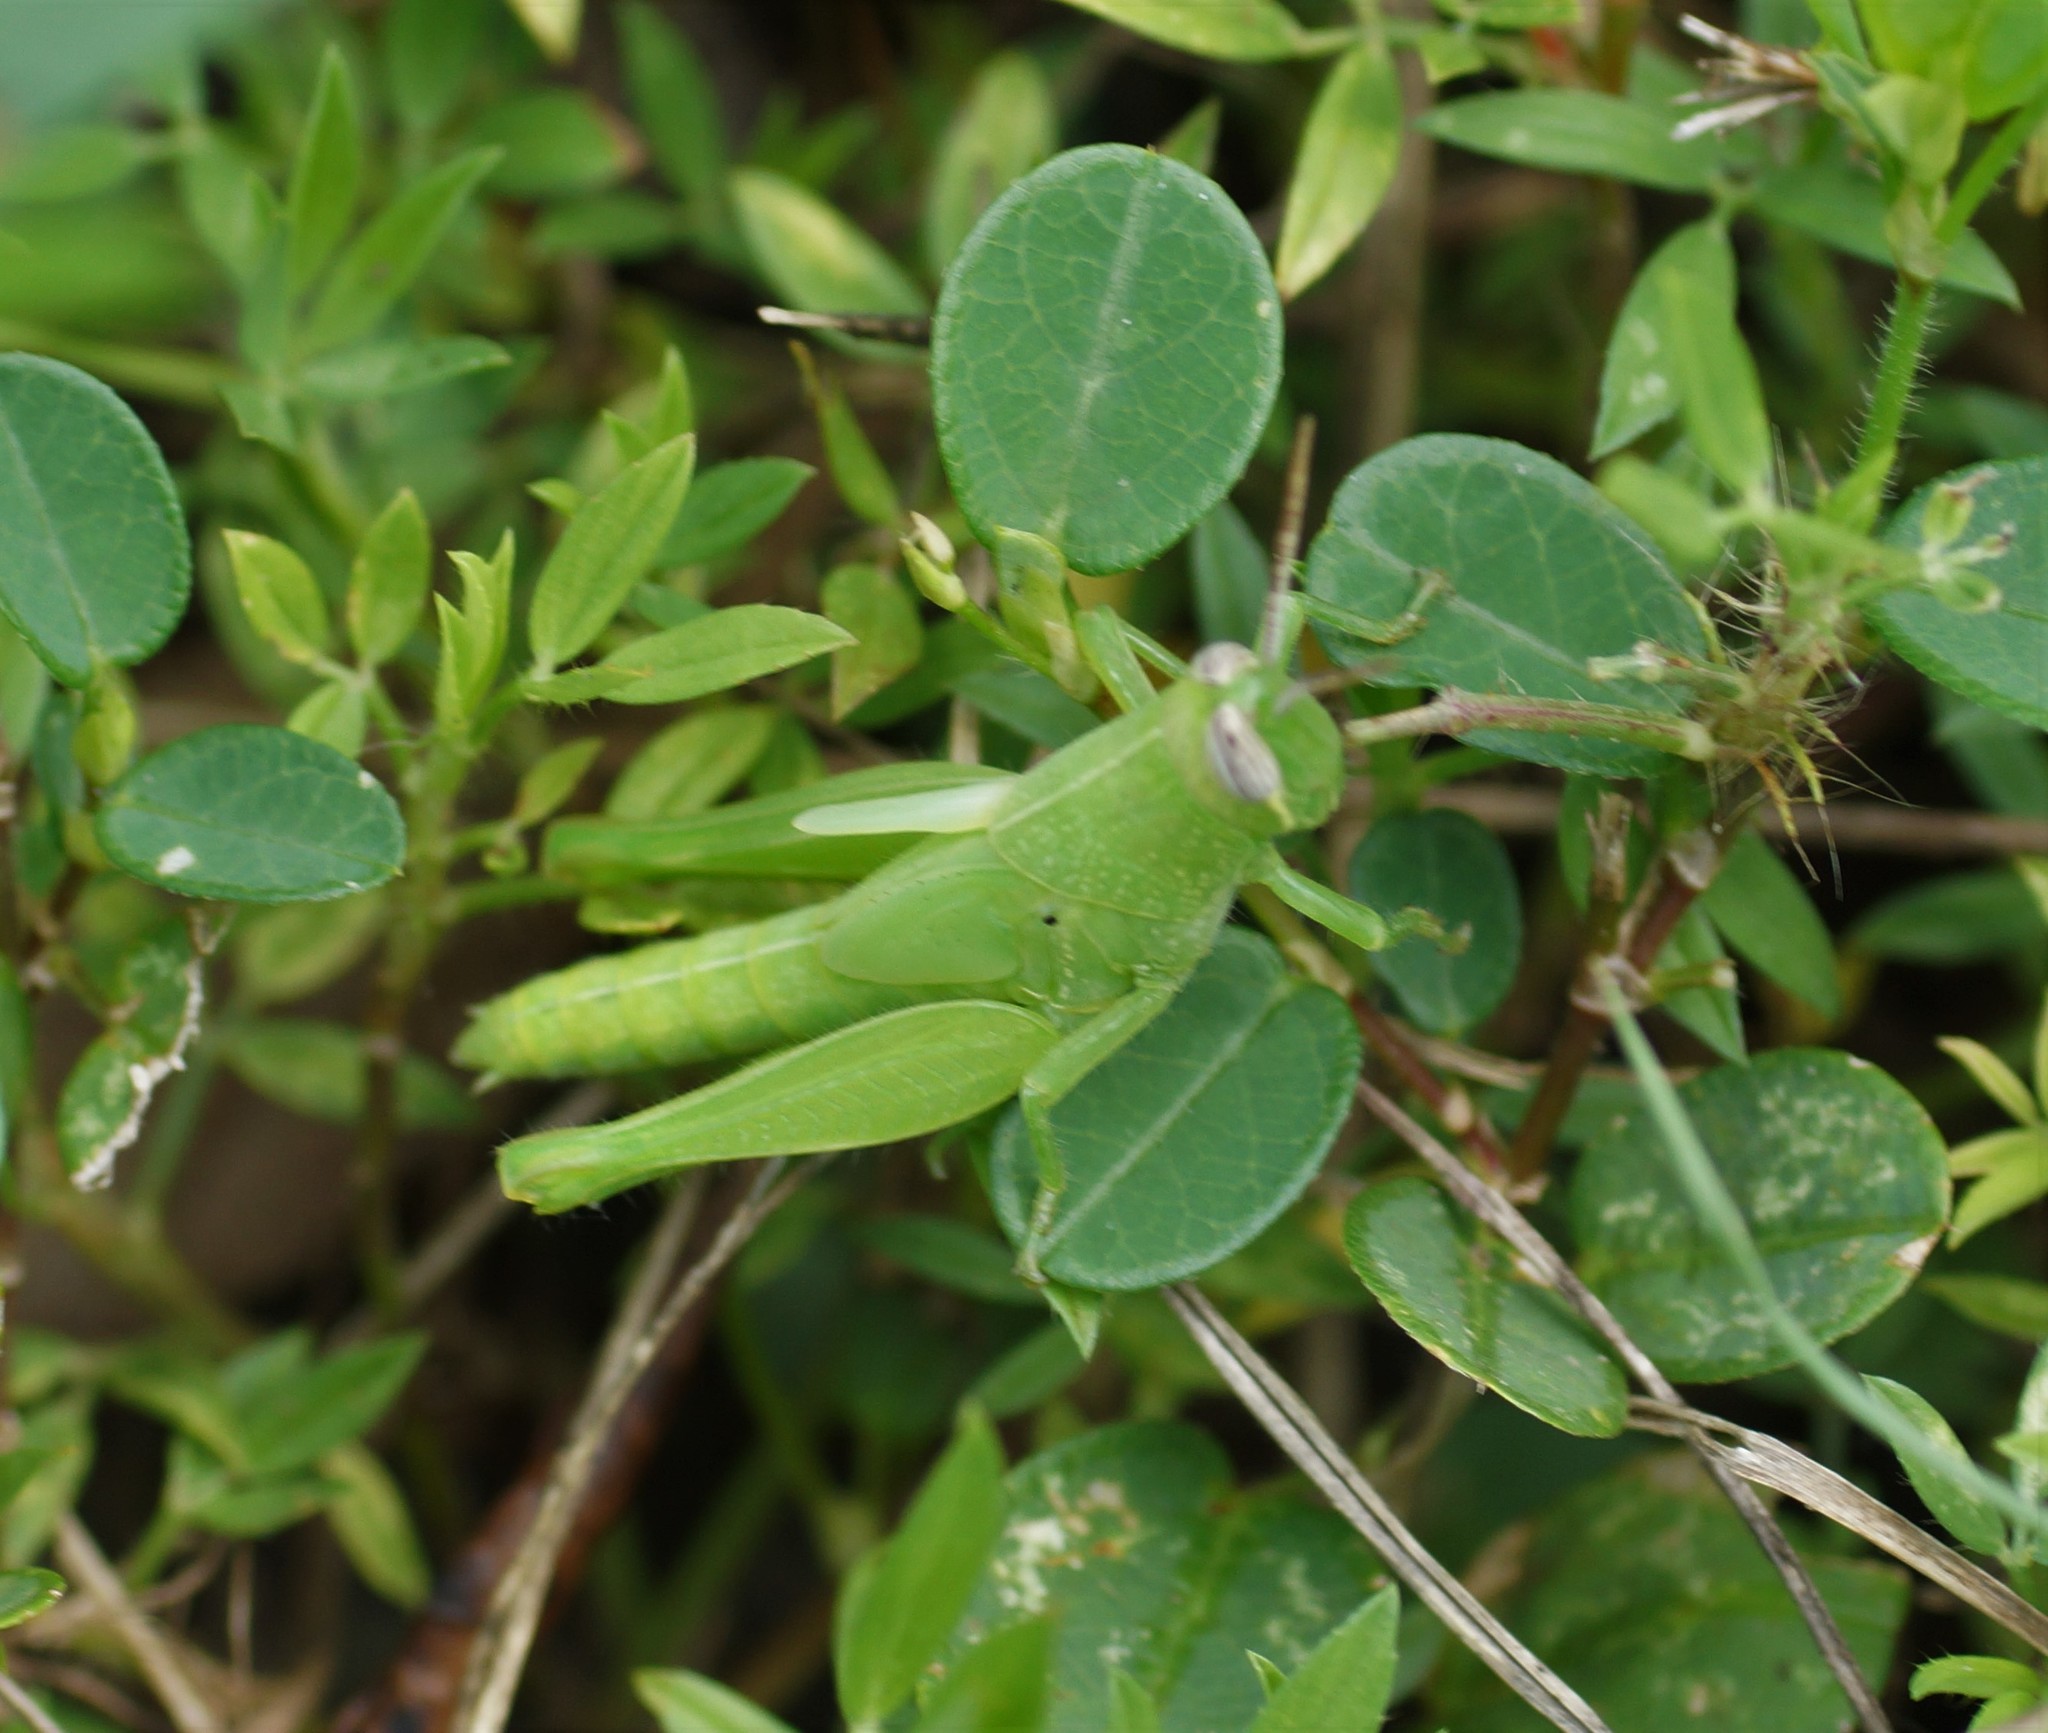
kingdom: Animalia
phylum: Arthropoda
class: Insecta
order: Orthoptera
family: Acrididae
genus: Stenocatantops
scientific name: Stenocatantops angustifrons
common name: Common tropical sharptail
